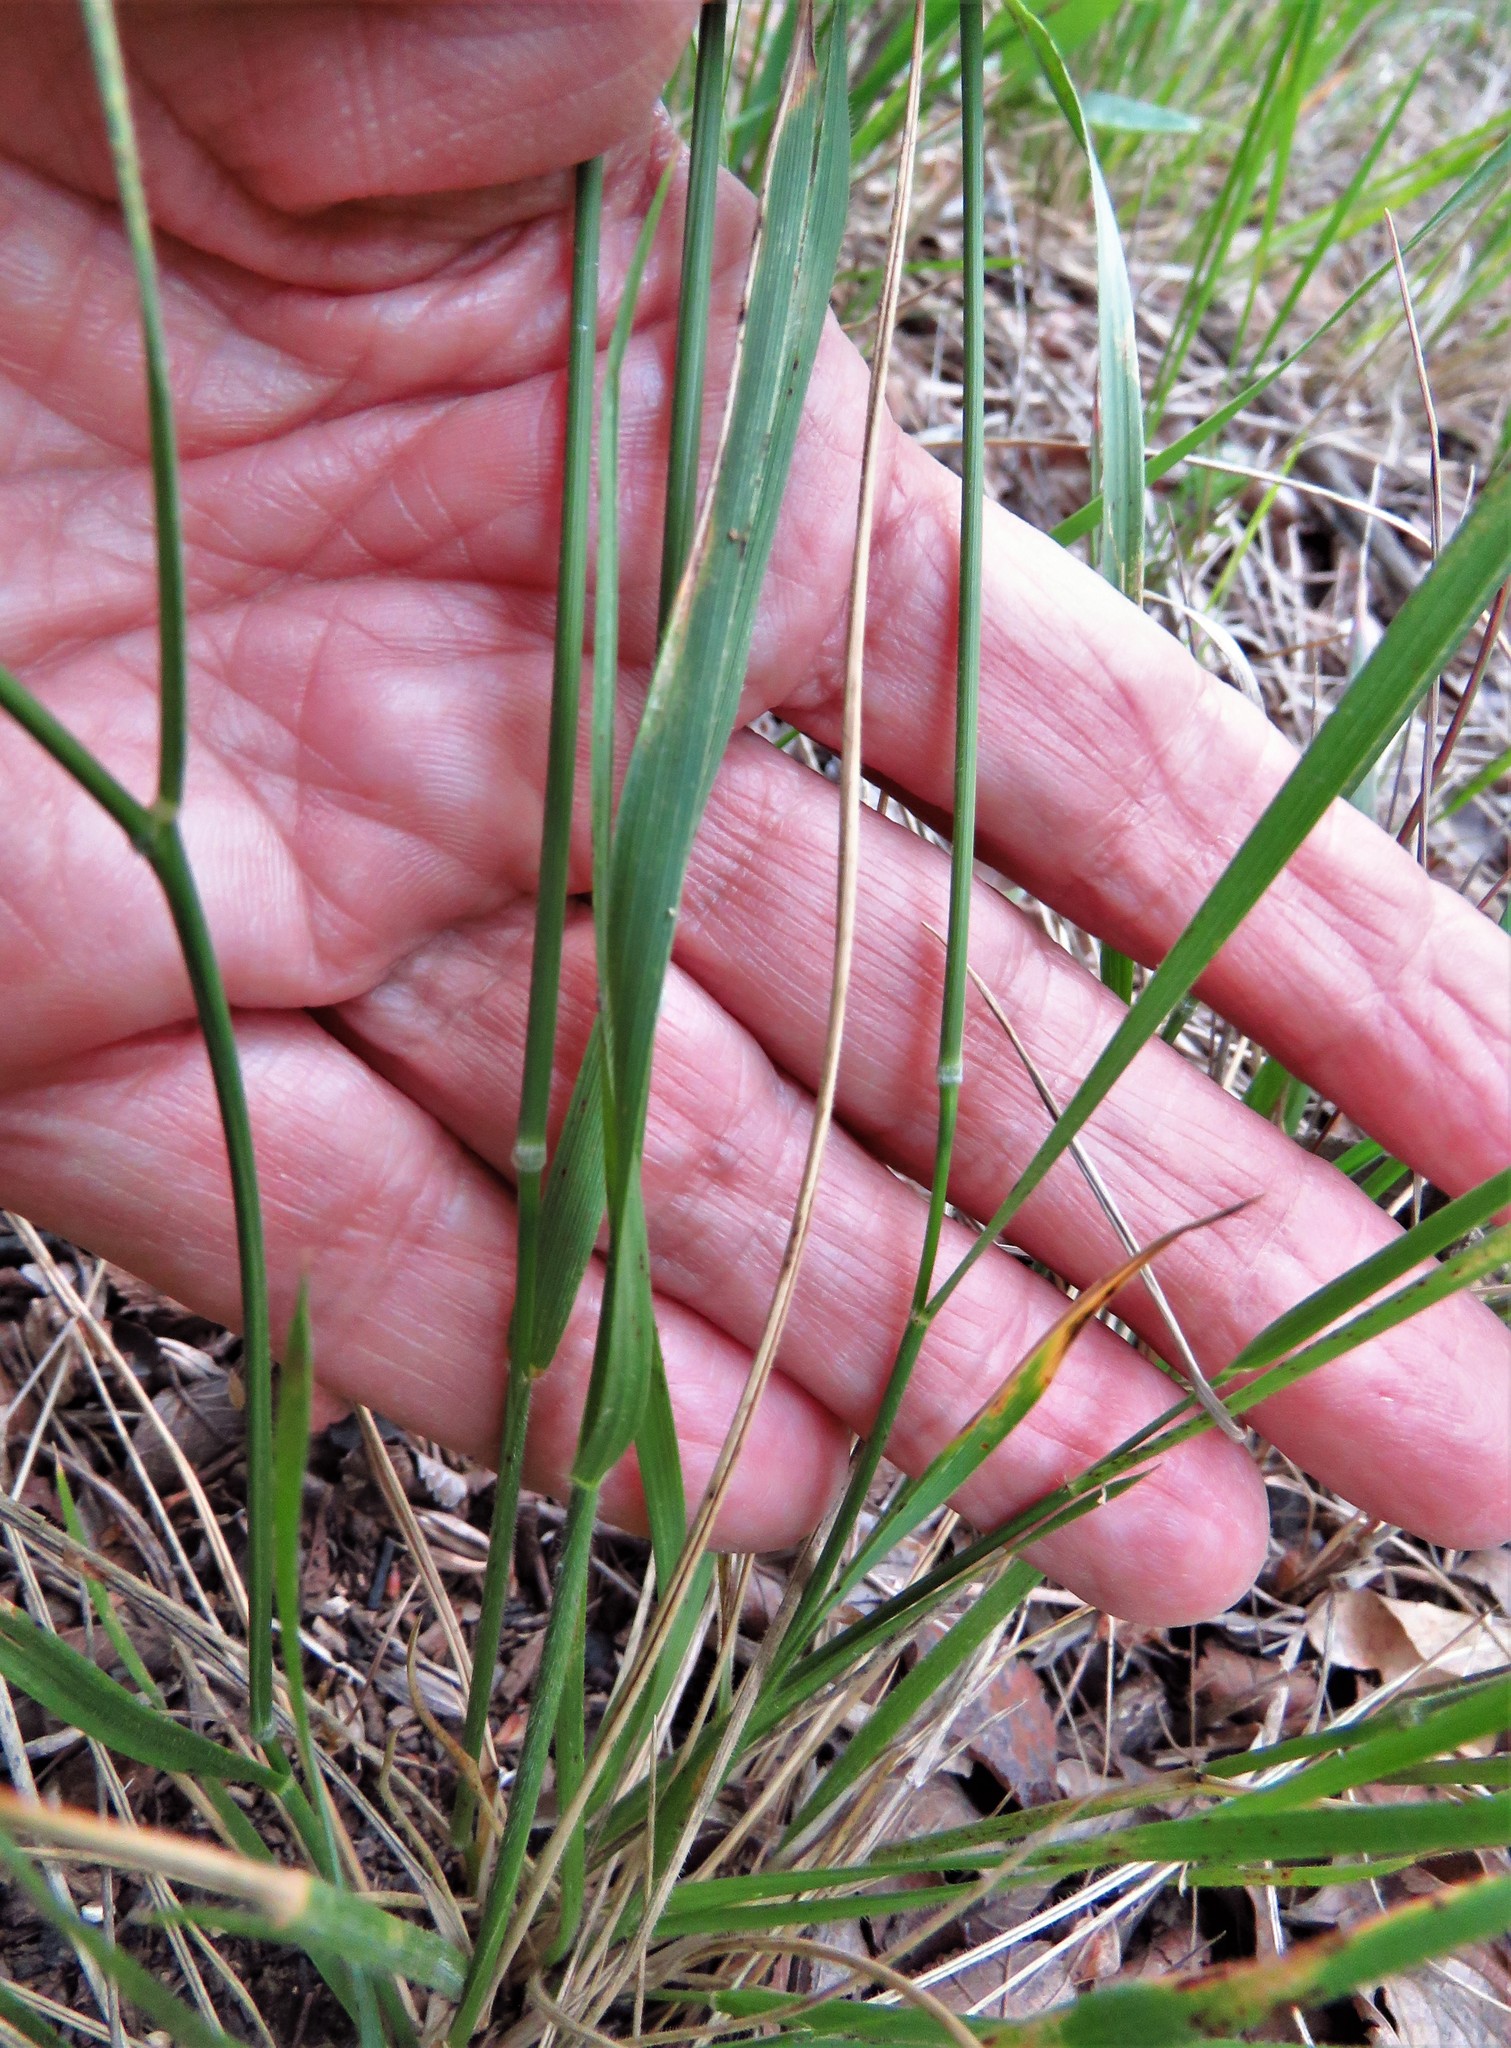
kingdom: Plantae
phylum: Tracheophyta
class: Liliopsida
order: Poales
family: Poaceae
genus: Nassella
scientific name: Nassella leucotricha
